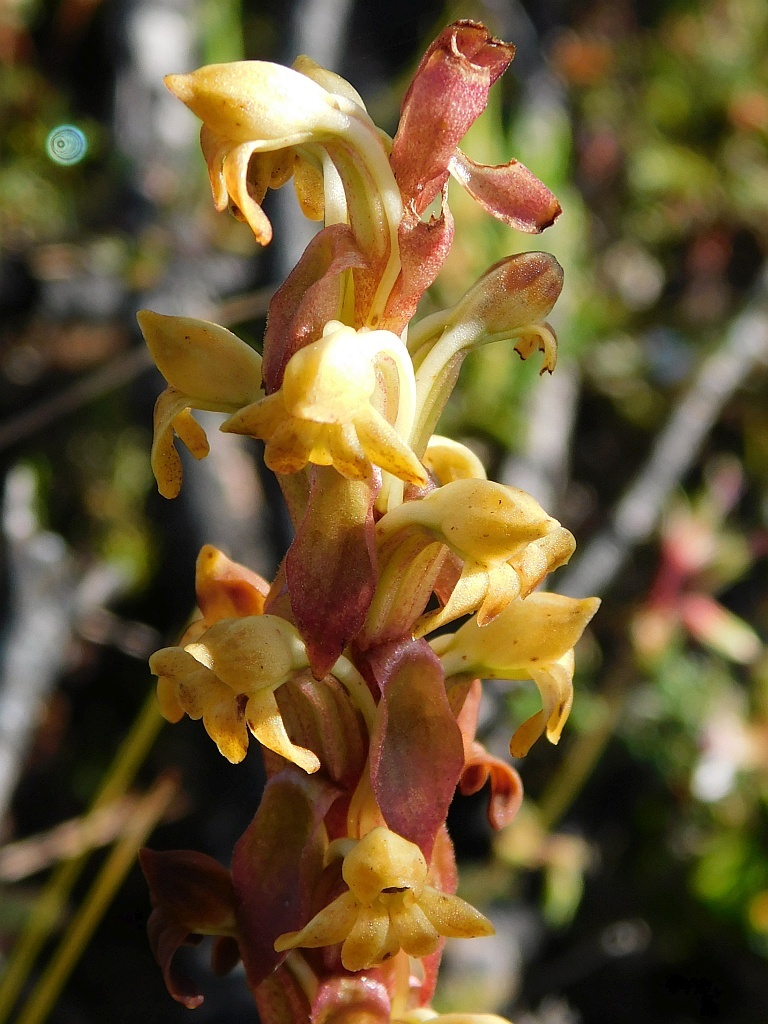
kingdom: Plantae
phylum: Tracheophyta
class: Liliopsida
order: Asparagales
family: Orchidaceae
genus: Satyrium
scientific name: Satyrium bicorne
